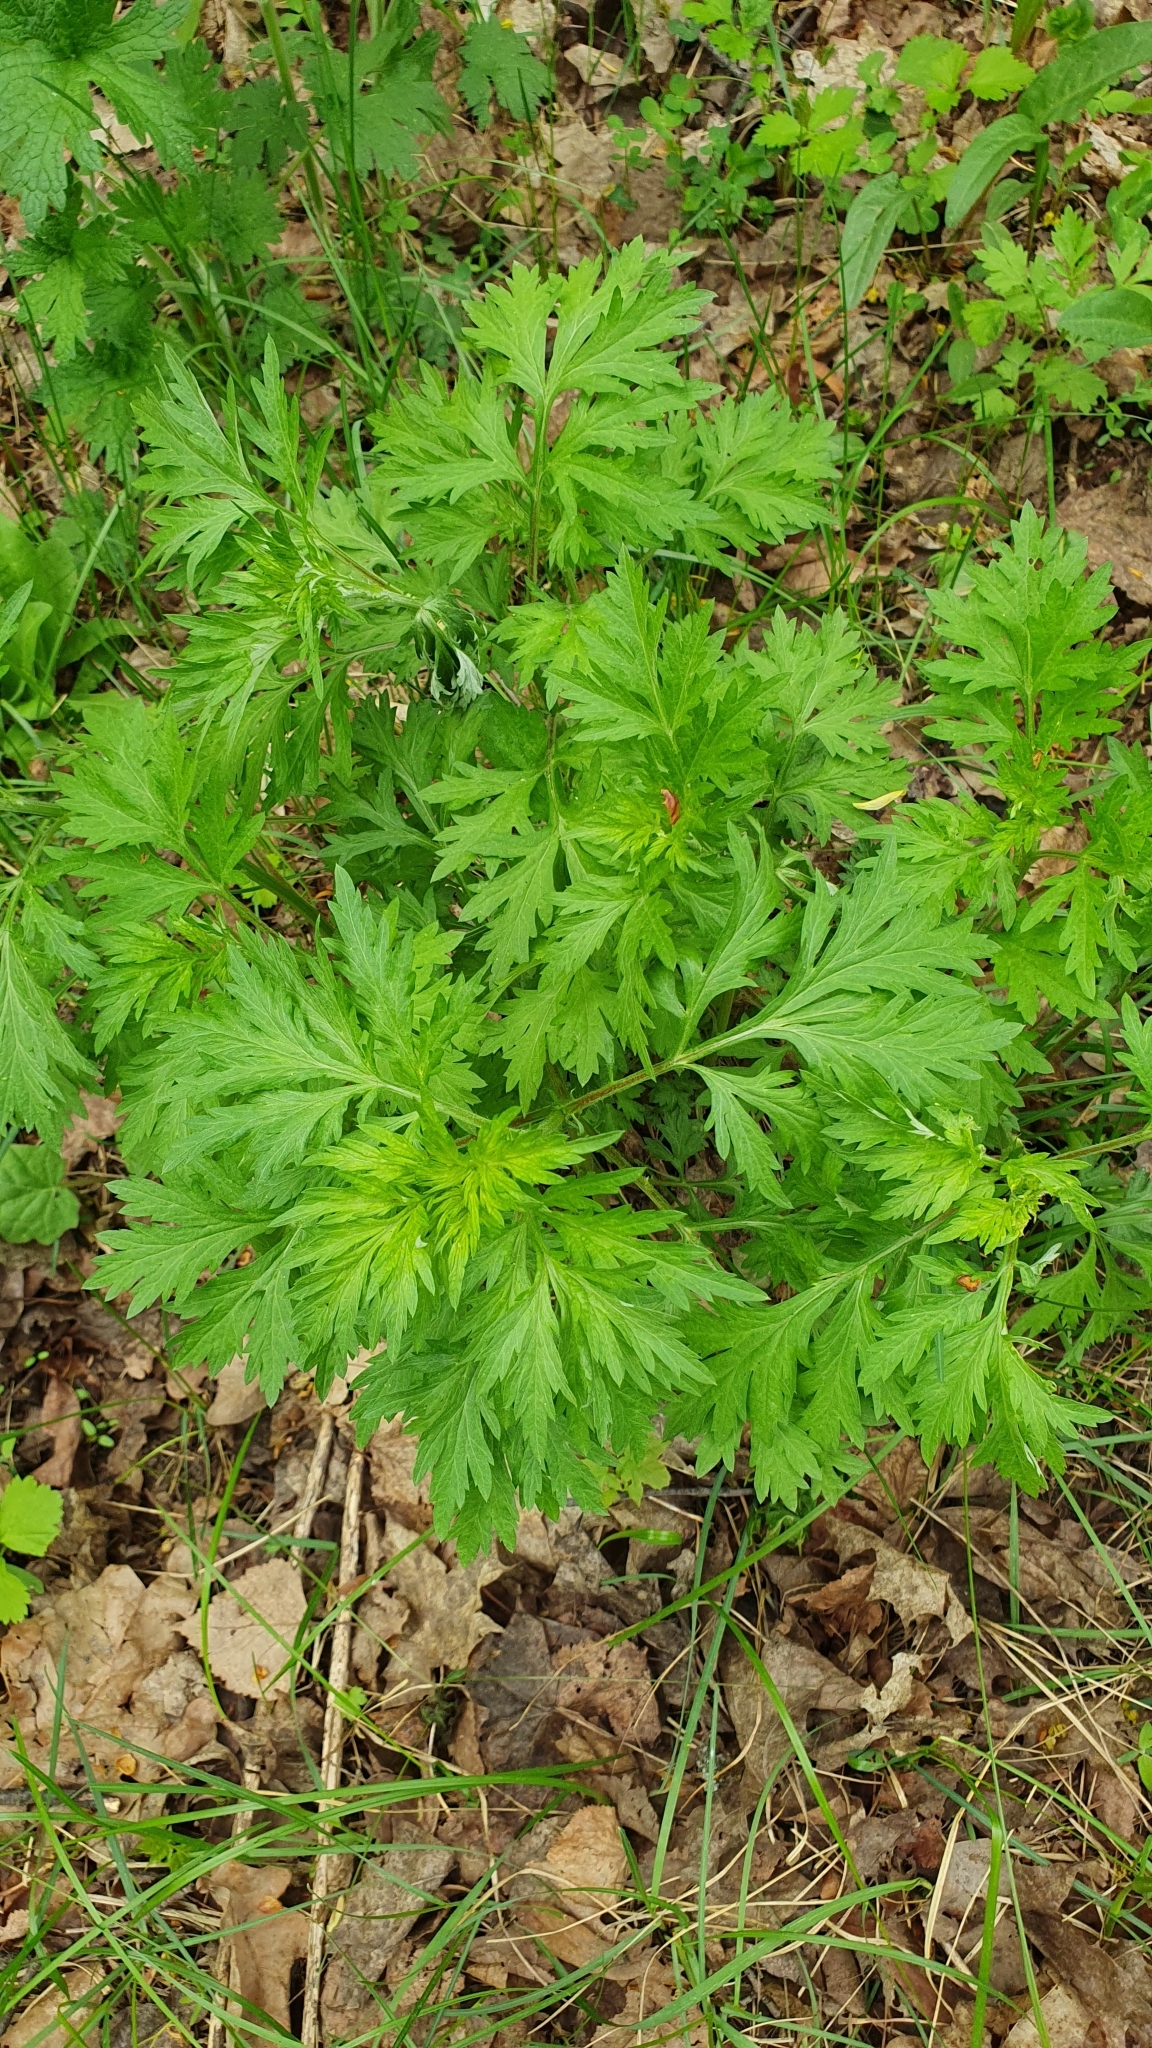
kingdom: Plantae
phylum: Tracheophyta
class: Magnoliopsida
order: Asterales
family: Asteraceae
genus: Artemisia
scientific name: Artemisia vulgaris
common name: Mugwort
